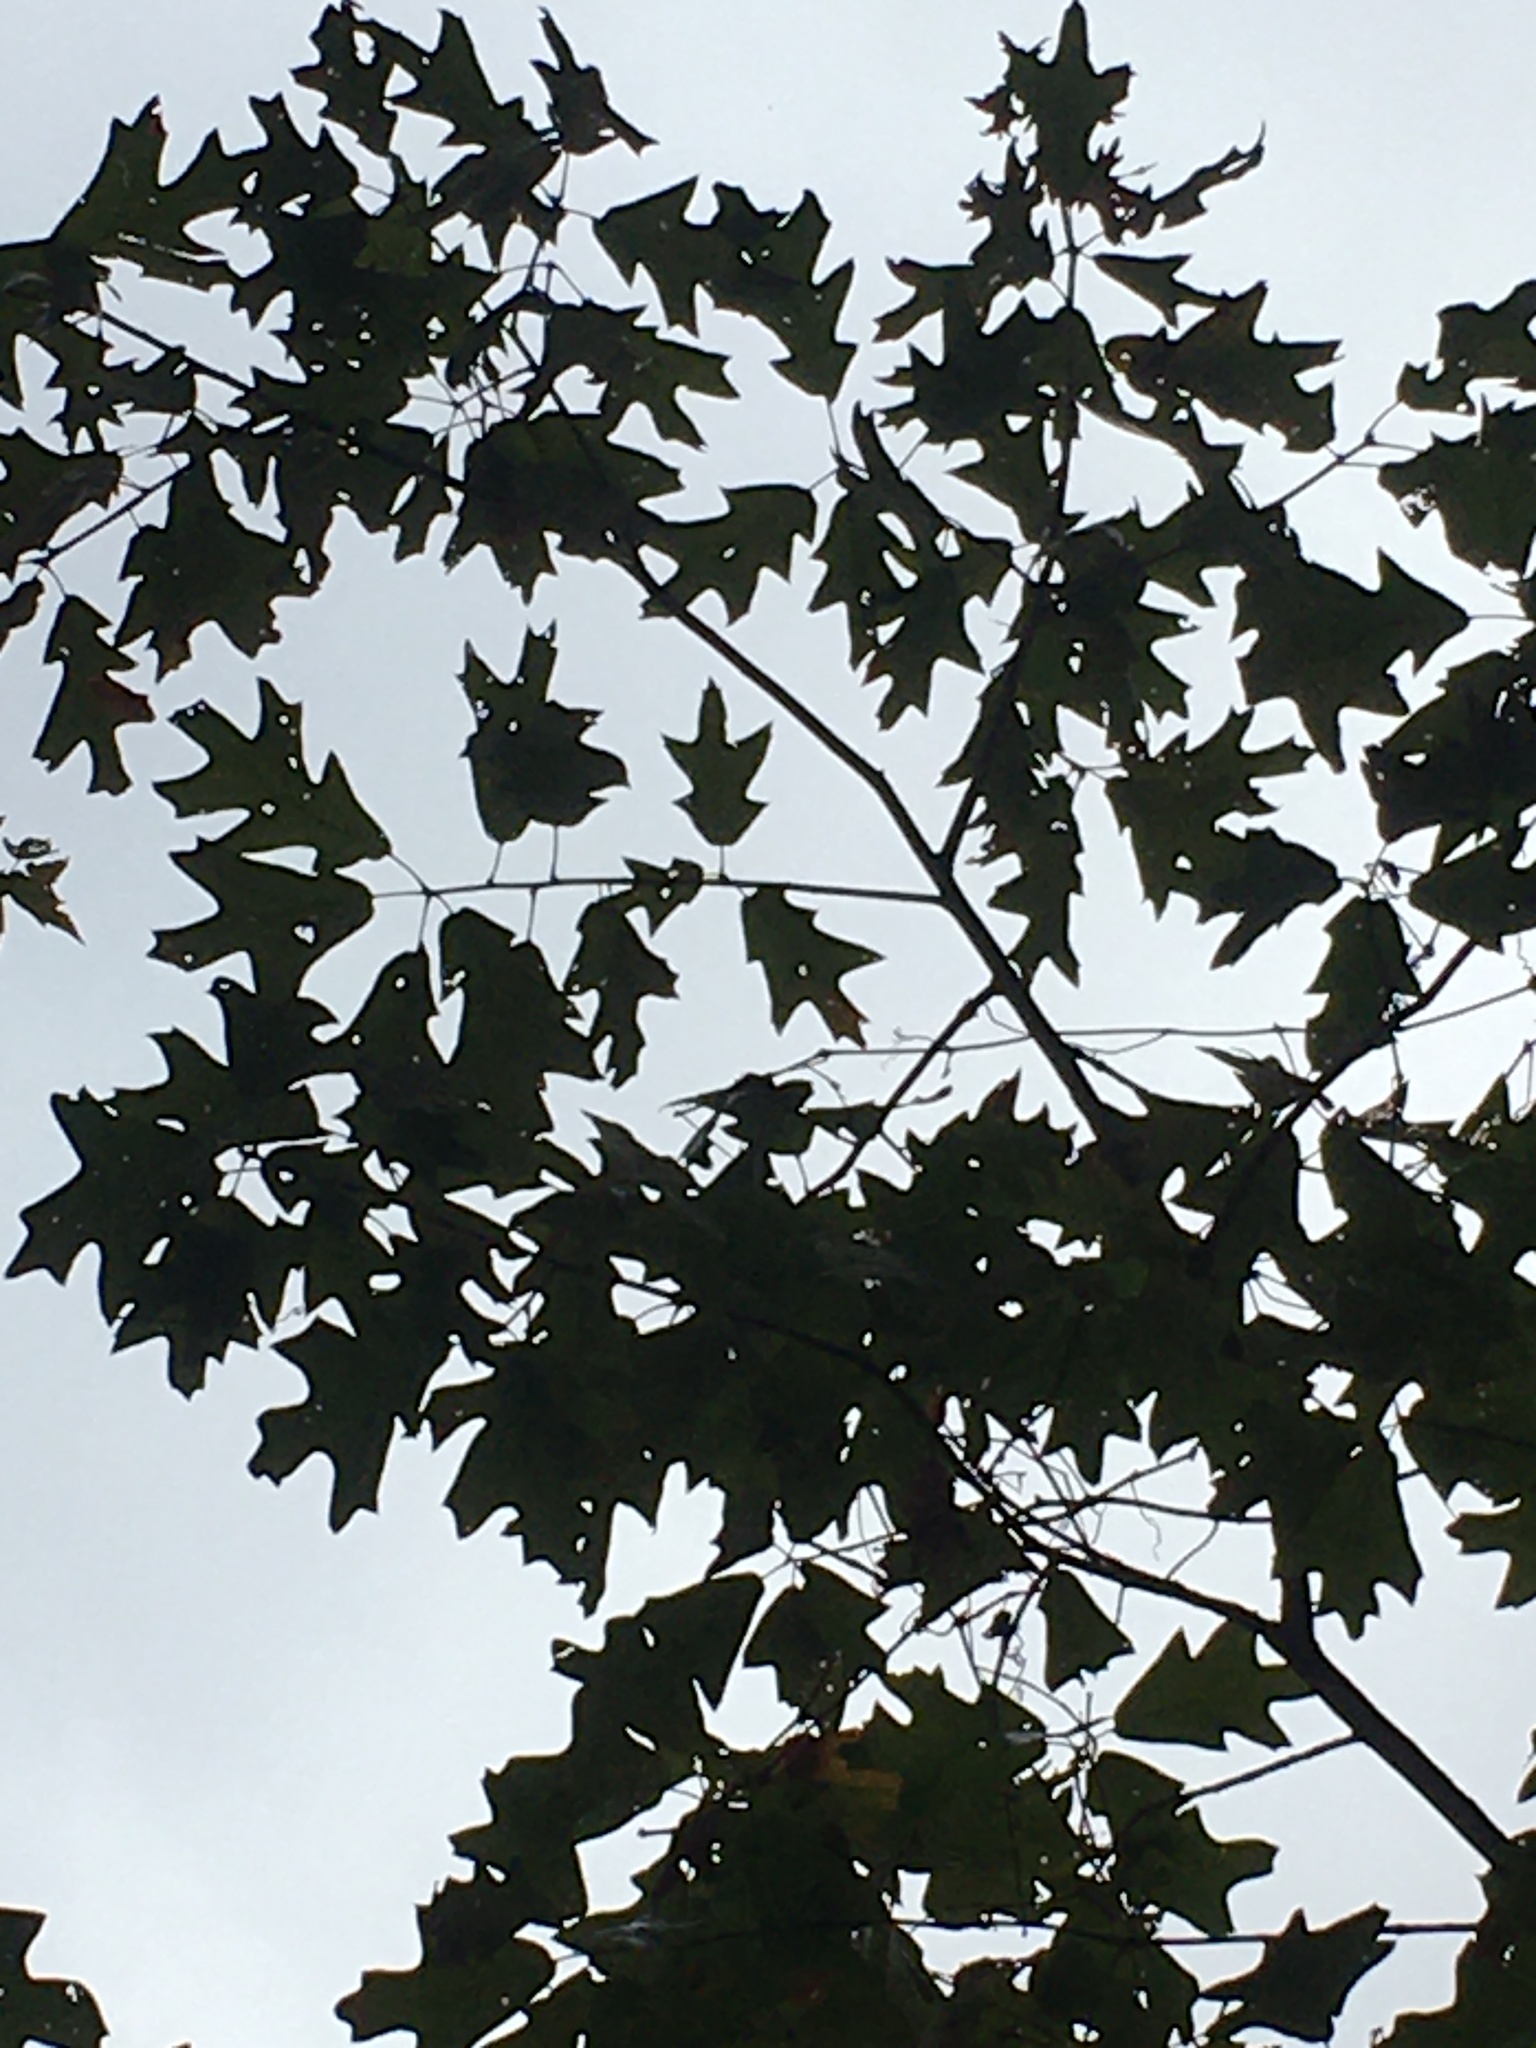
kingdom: Plantae
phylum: Tracheophyta
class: Magnoliopsida
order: Fagales
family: Fagaceae
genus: Quercus
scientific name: Quercus falcata
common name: Southern red oak
